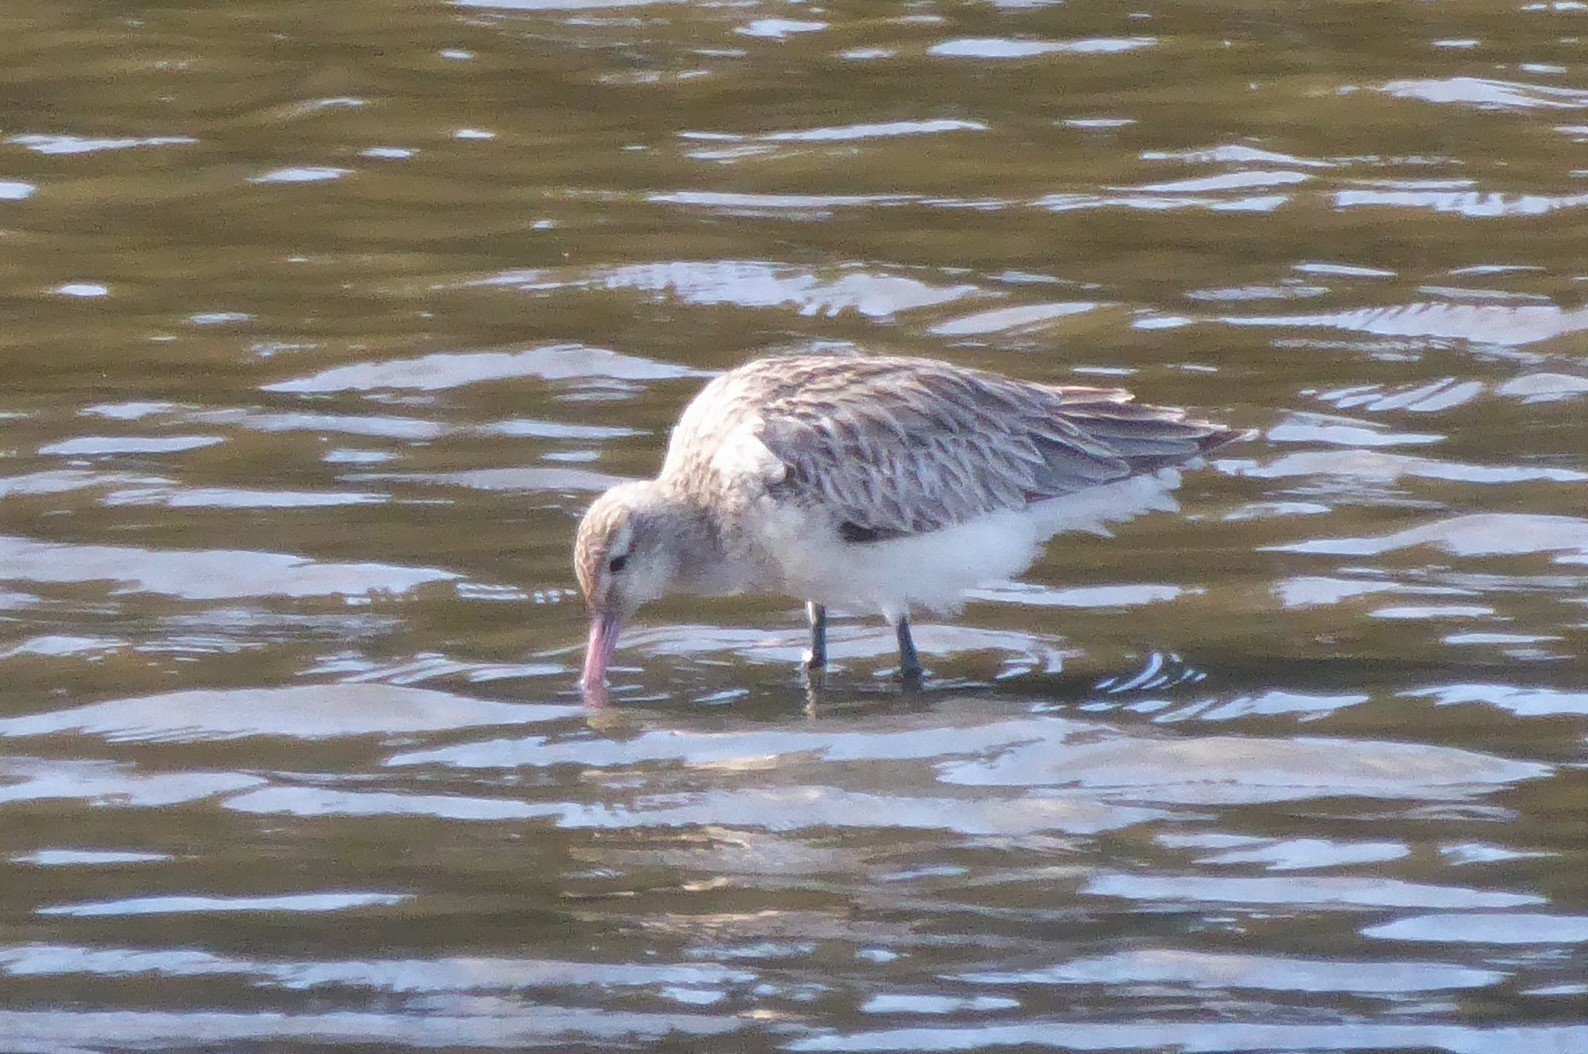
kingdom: Animalia
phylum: Chordata
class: Aves
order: Charadriiformes
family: Scolopacidae
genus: Limosa
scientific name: Limosa lapponica
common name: Bar-tailed godwit
